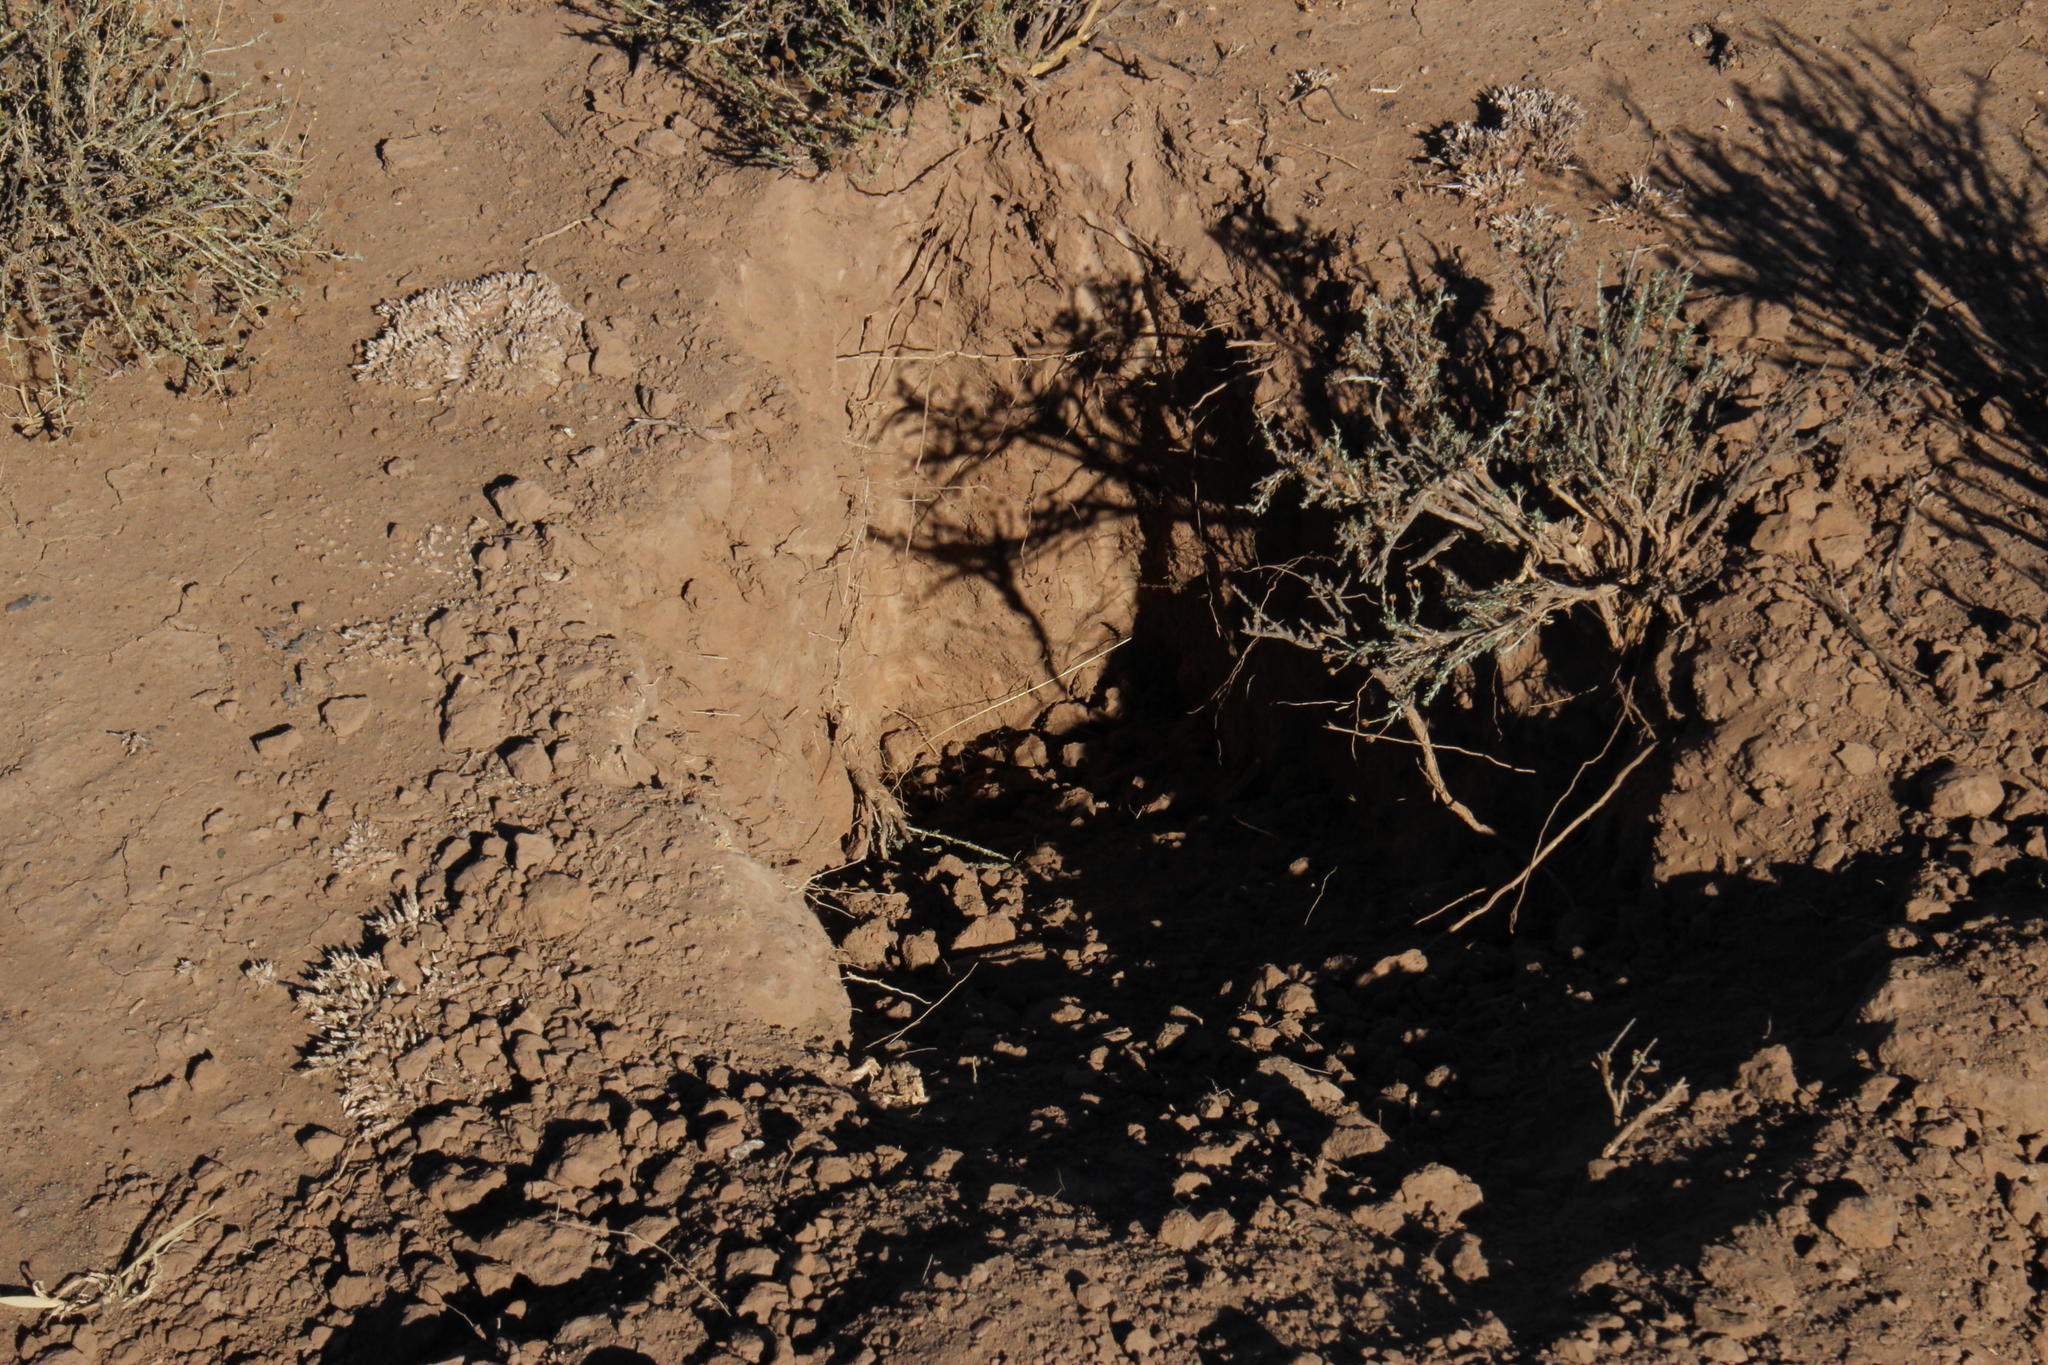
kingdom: Animalia
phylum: Chordata
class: Mammalia
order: Tubulidentata
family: Orycteropodidae
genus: Orycteropus
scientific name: Orycteropus afer
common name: Aardvark
